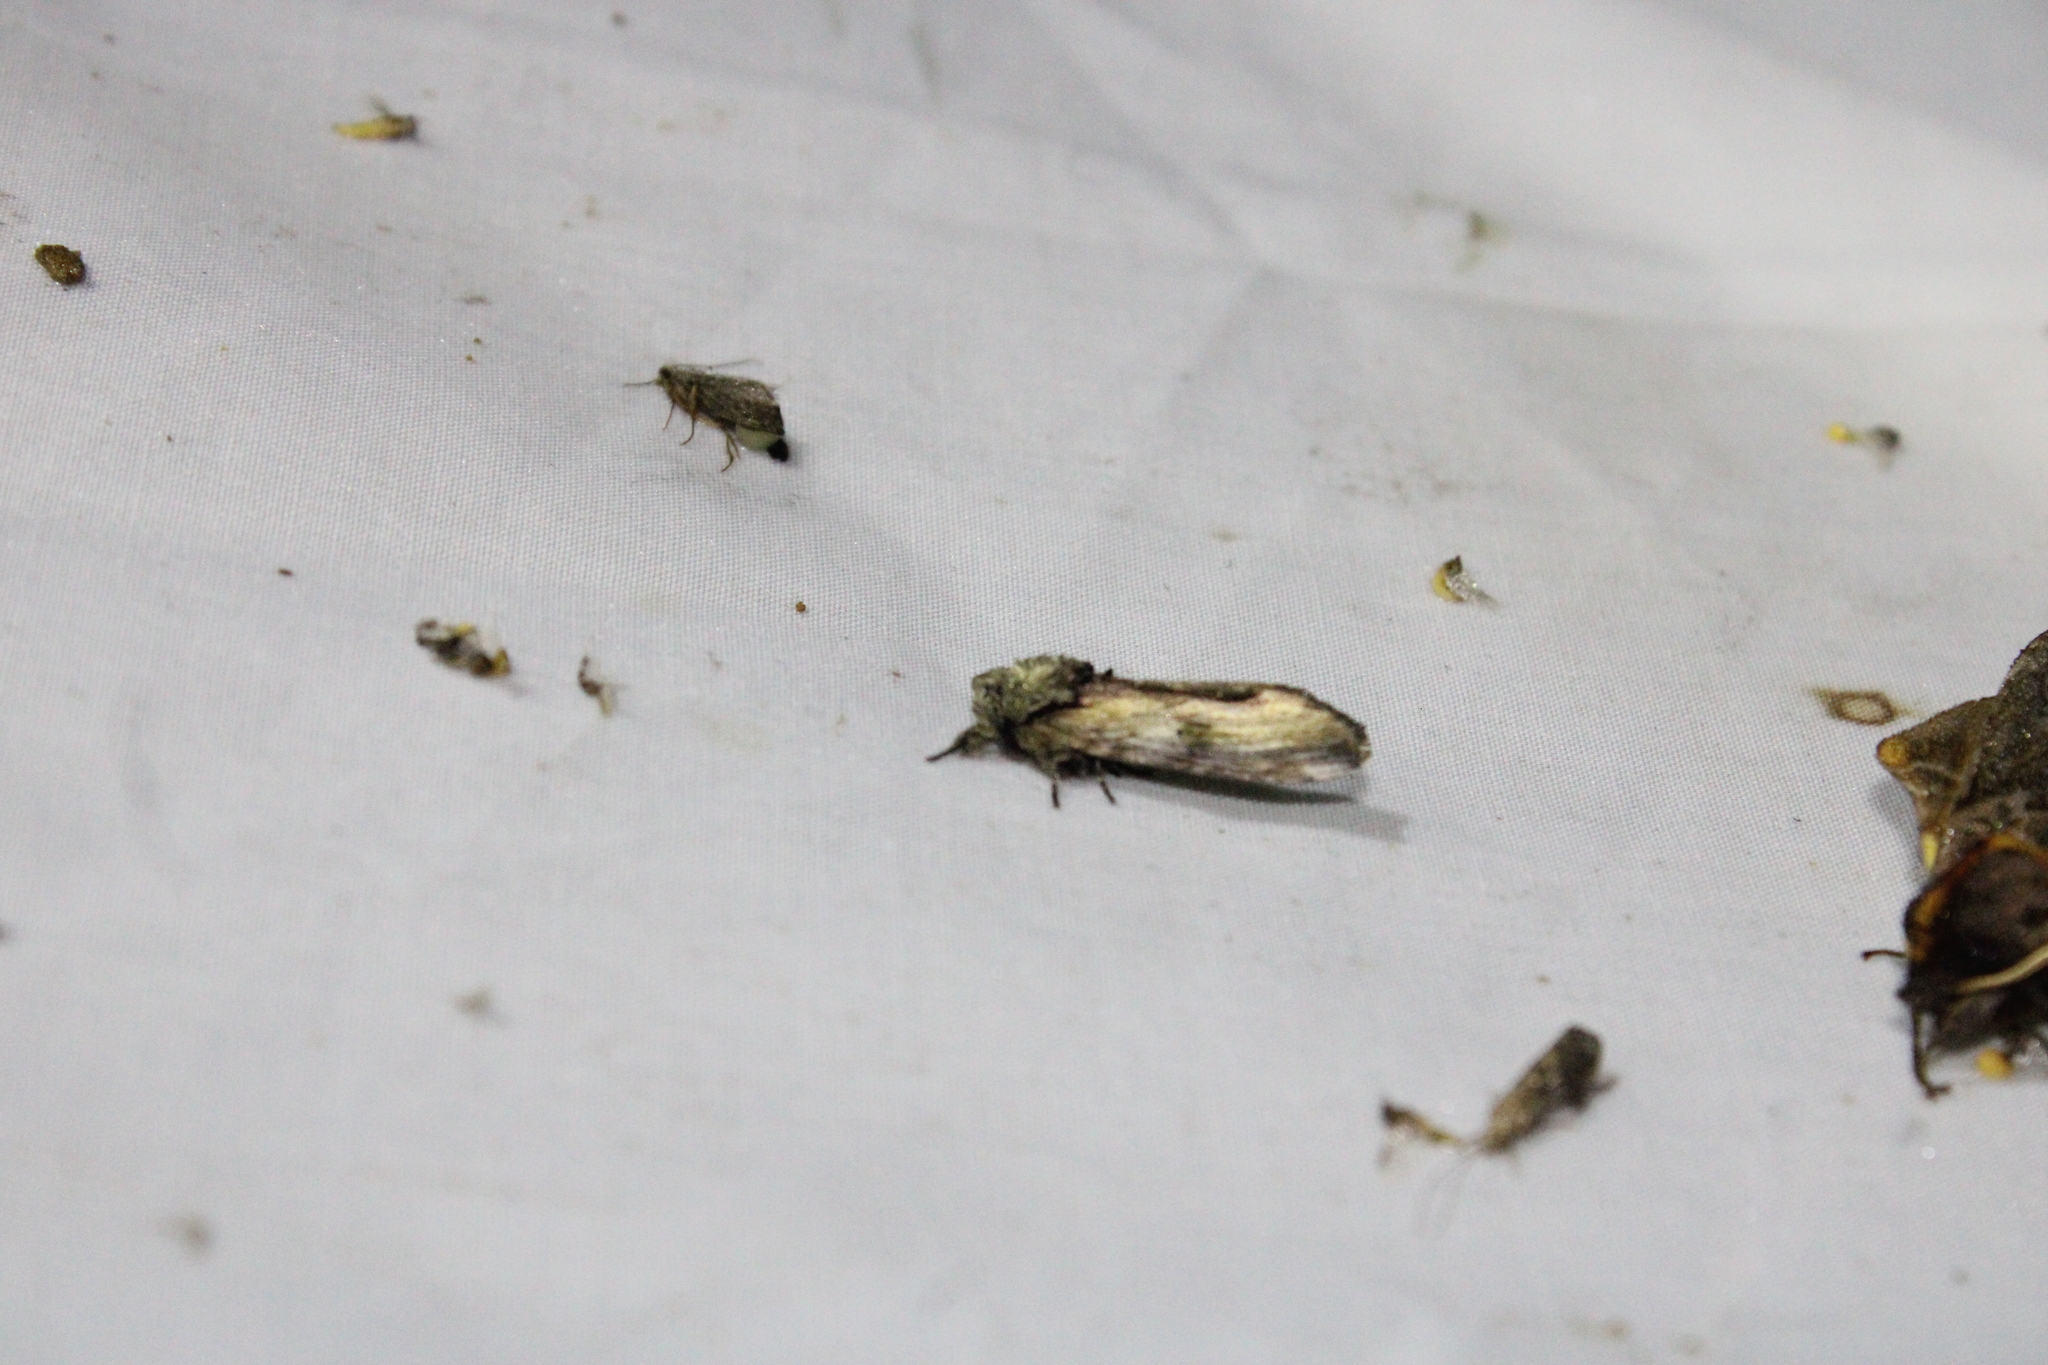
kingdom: Animalia
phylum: Arthropoda
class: Insecta
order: Lepidoptera
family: Notodontidae
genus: Schizura
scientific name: Schizura
